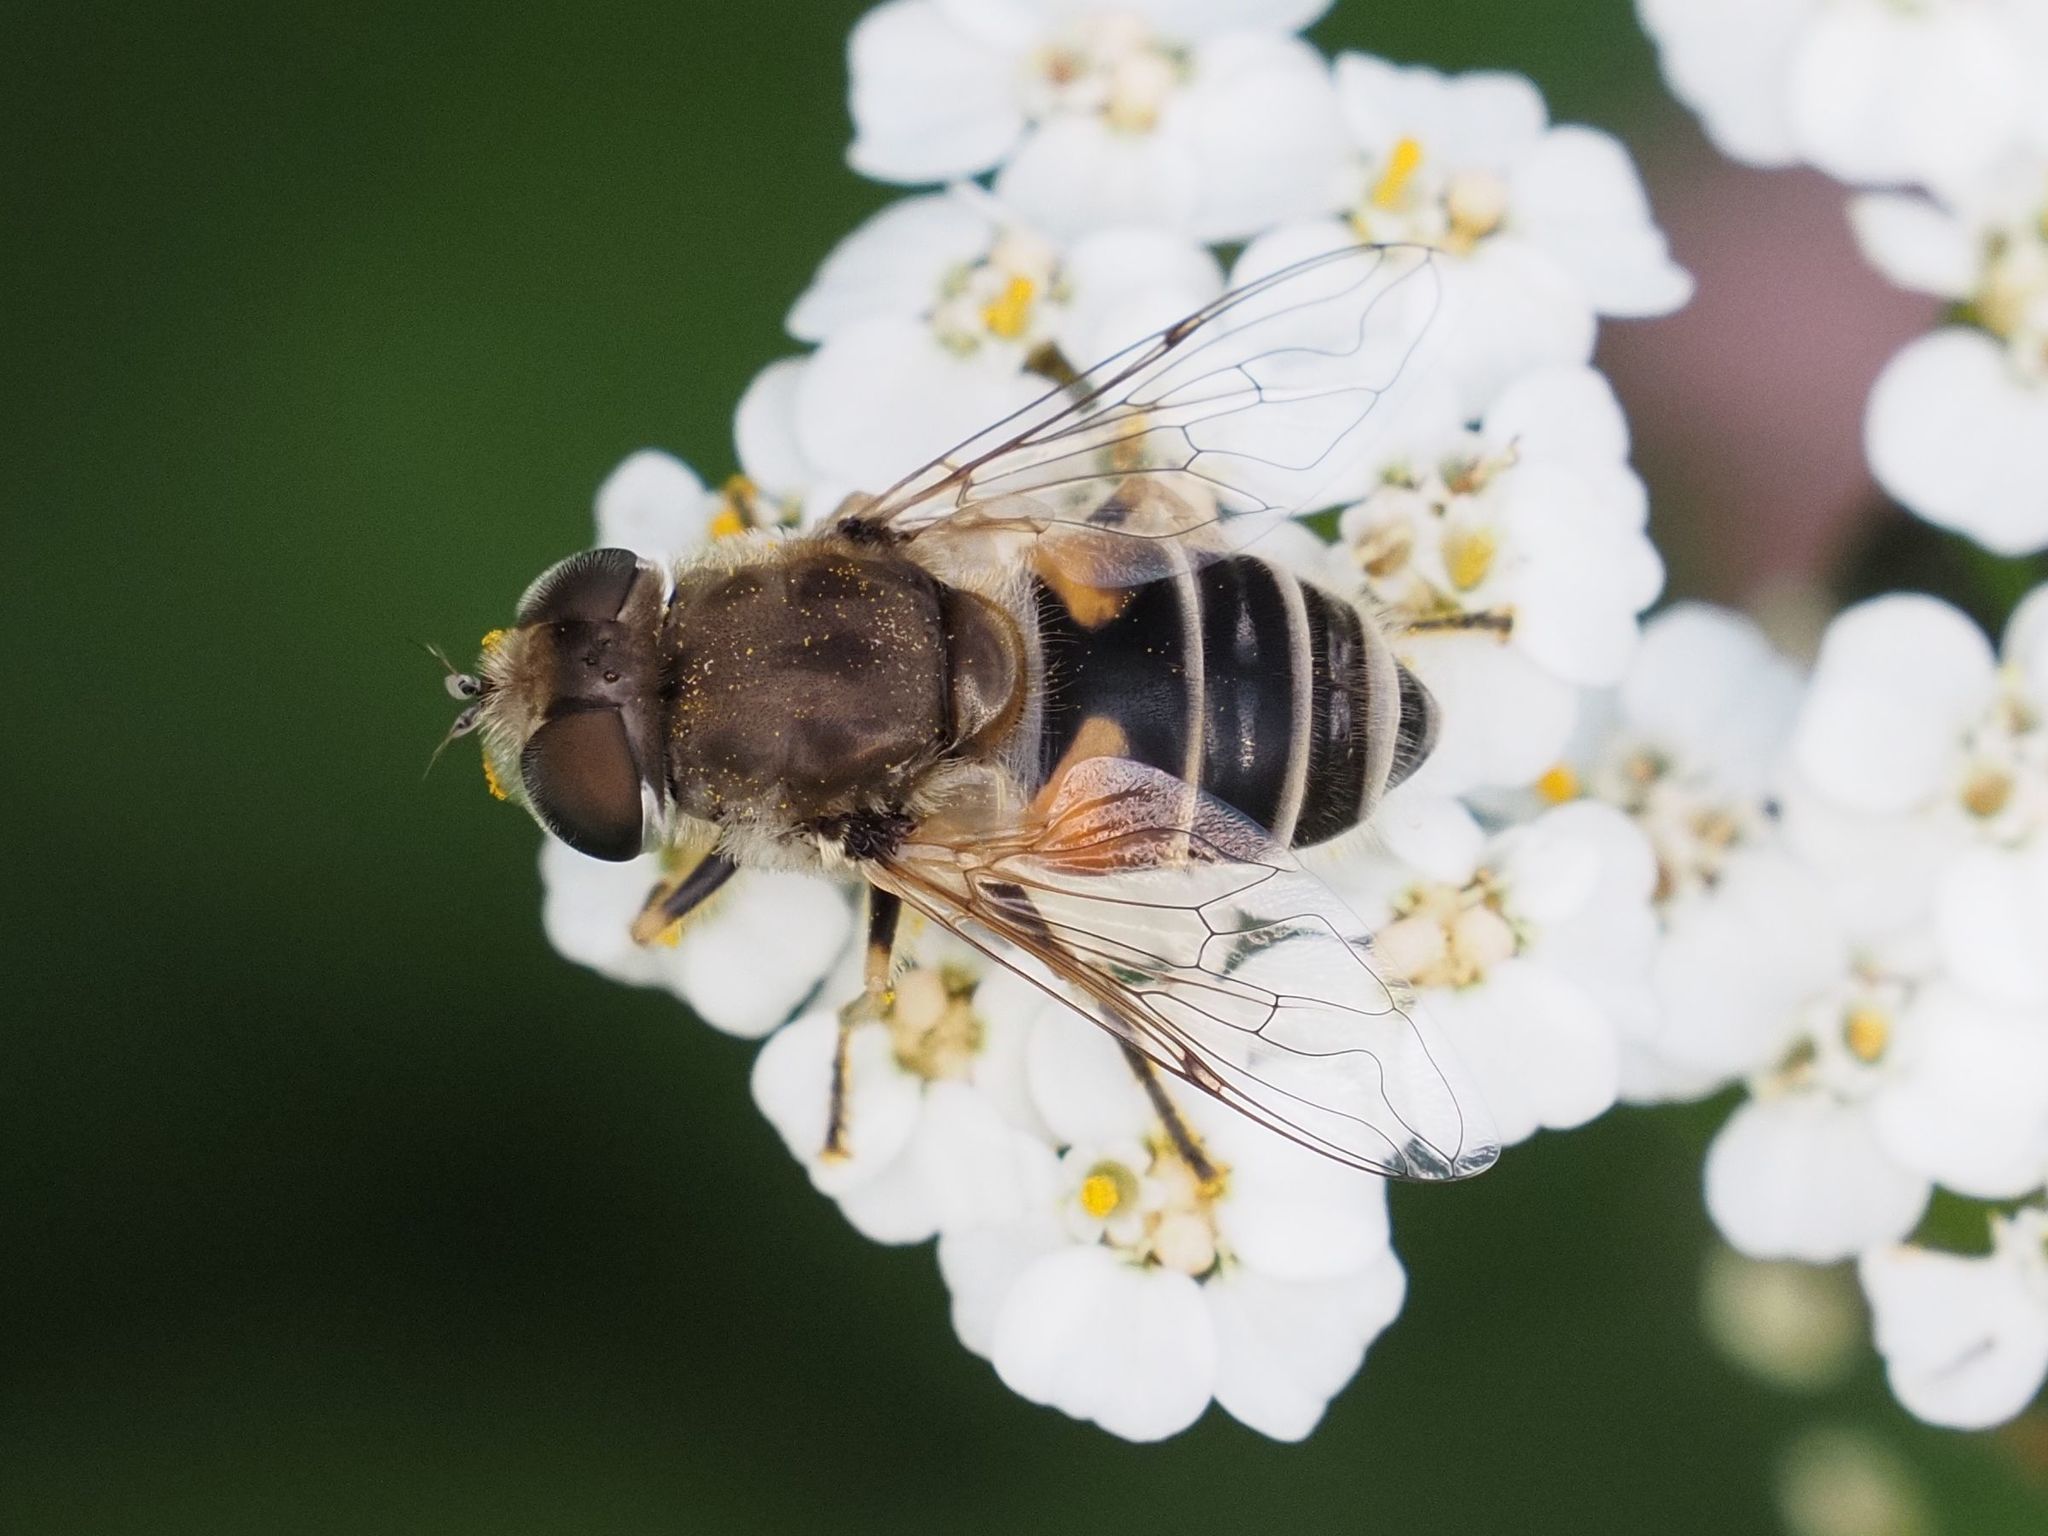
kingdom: Animalia
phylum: Arthropoda
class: Insecta
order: Diptera
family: Syrphidae
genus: Eristalis
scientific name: Eristalis arbustorum
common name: Hover fly
